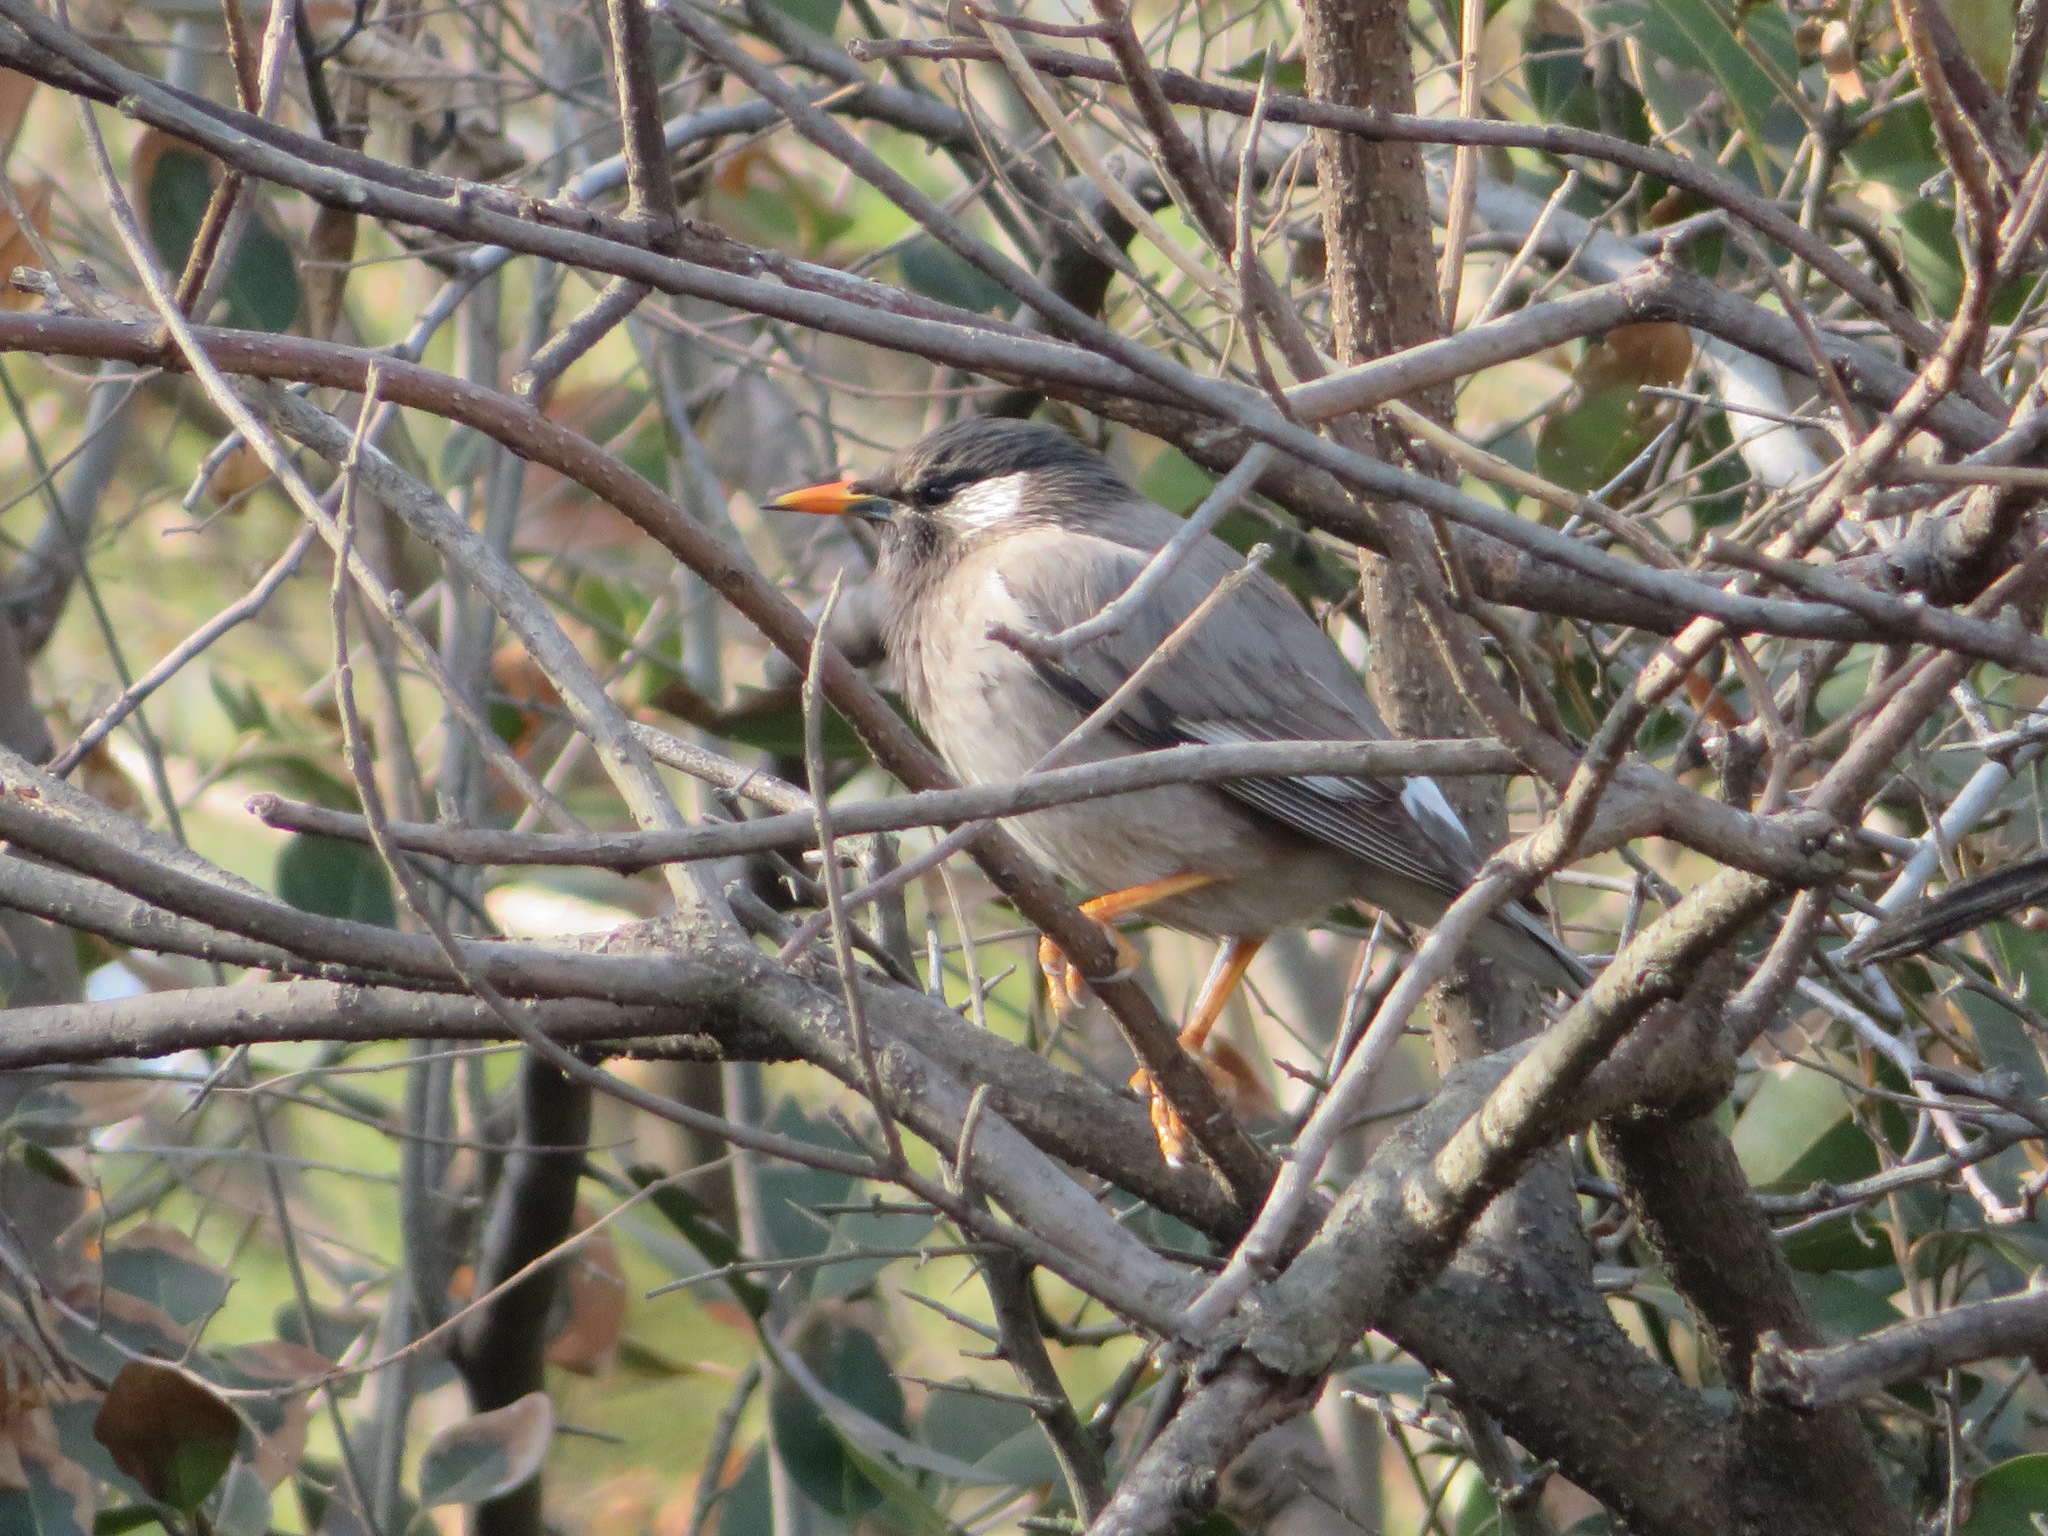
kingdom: Animalia
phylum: Chordata
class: Aves
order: Passeriformes
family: Sturnidae
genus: Spodiopsar
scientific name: Spodiopsar cineraceus
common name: White-cheeked starling
